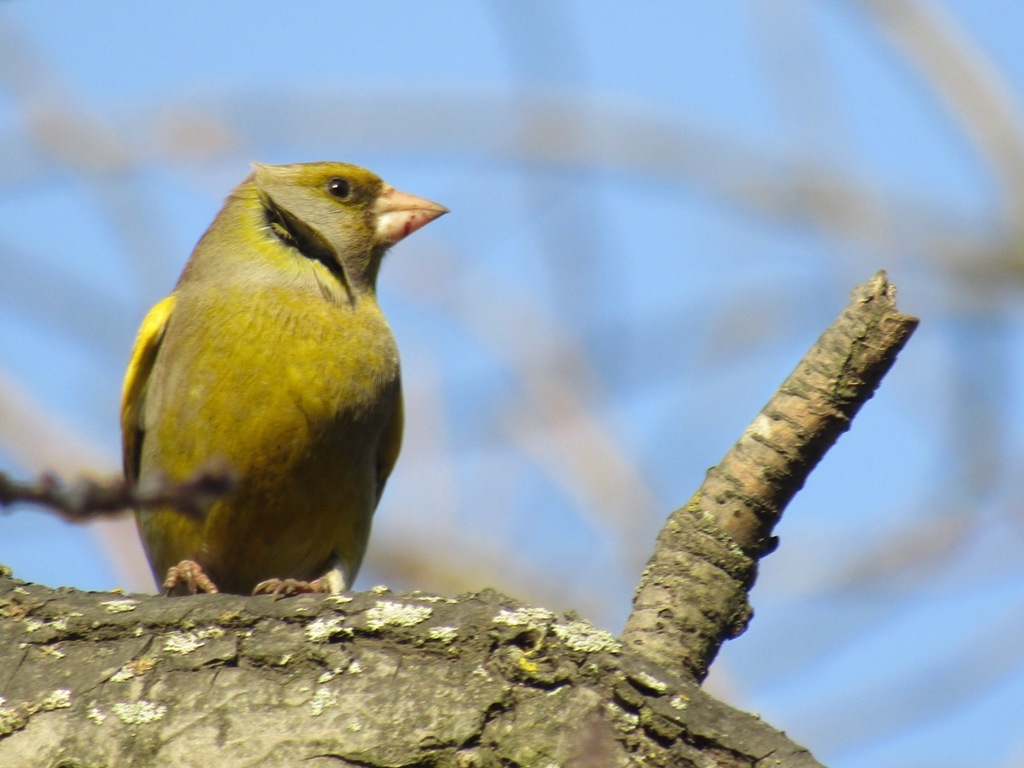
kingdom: Plantae
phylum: Tracheophyta
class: Liliopsida
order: Poales
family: Poaceae
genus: Chloris
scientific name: Chloris chloris
